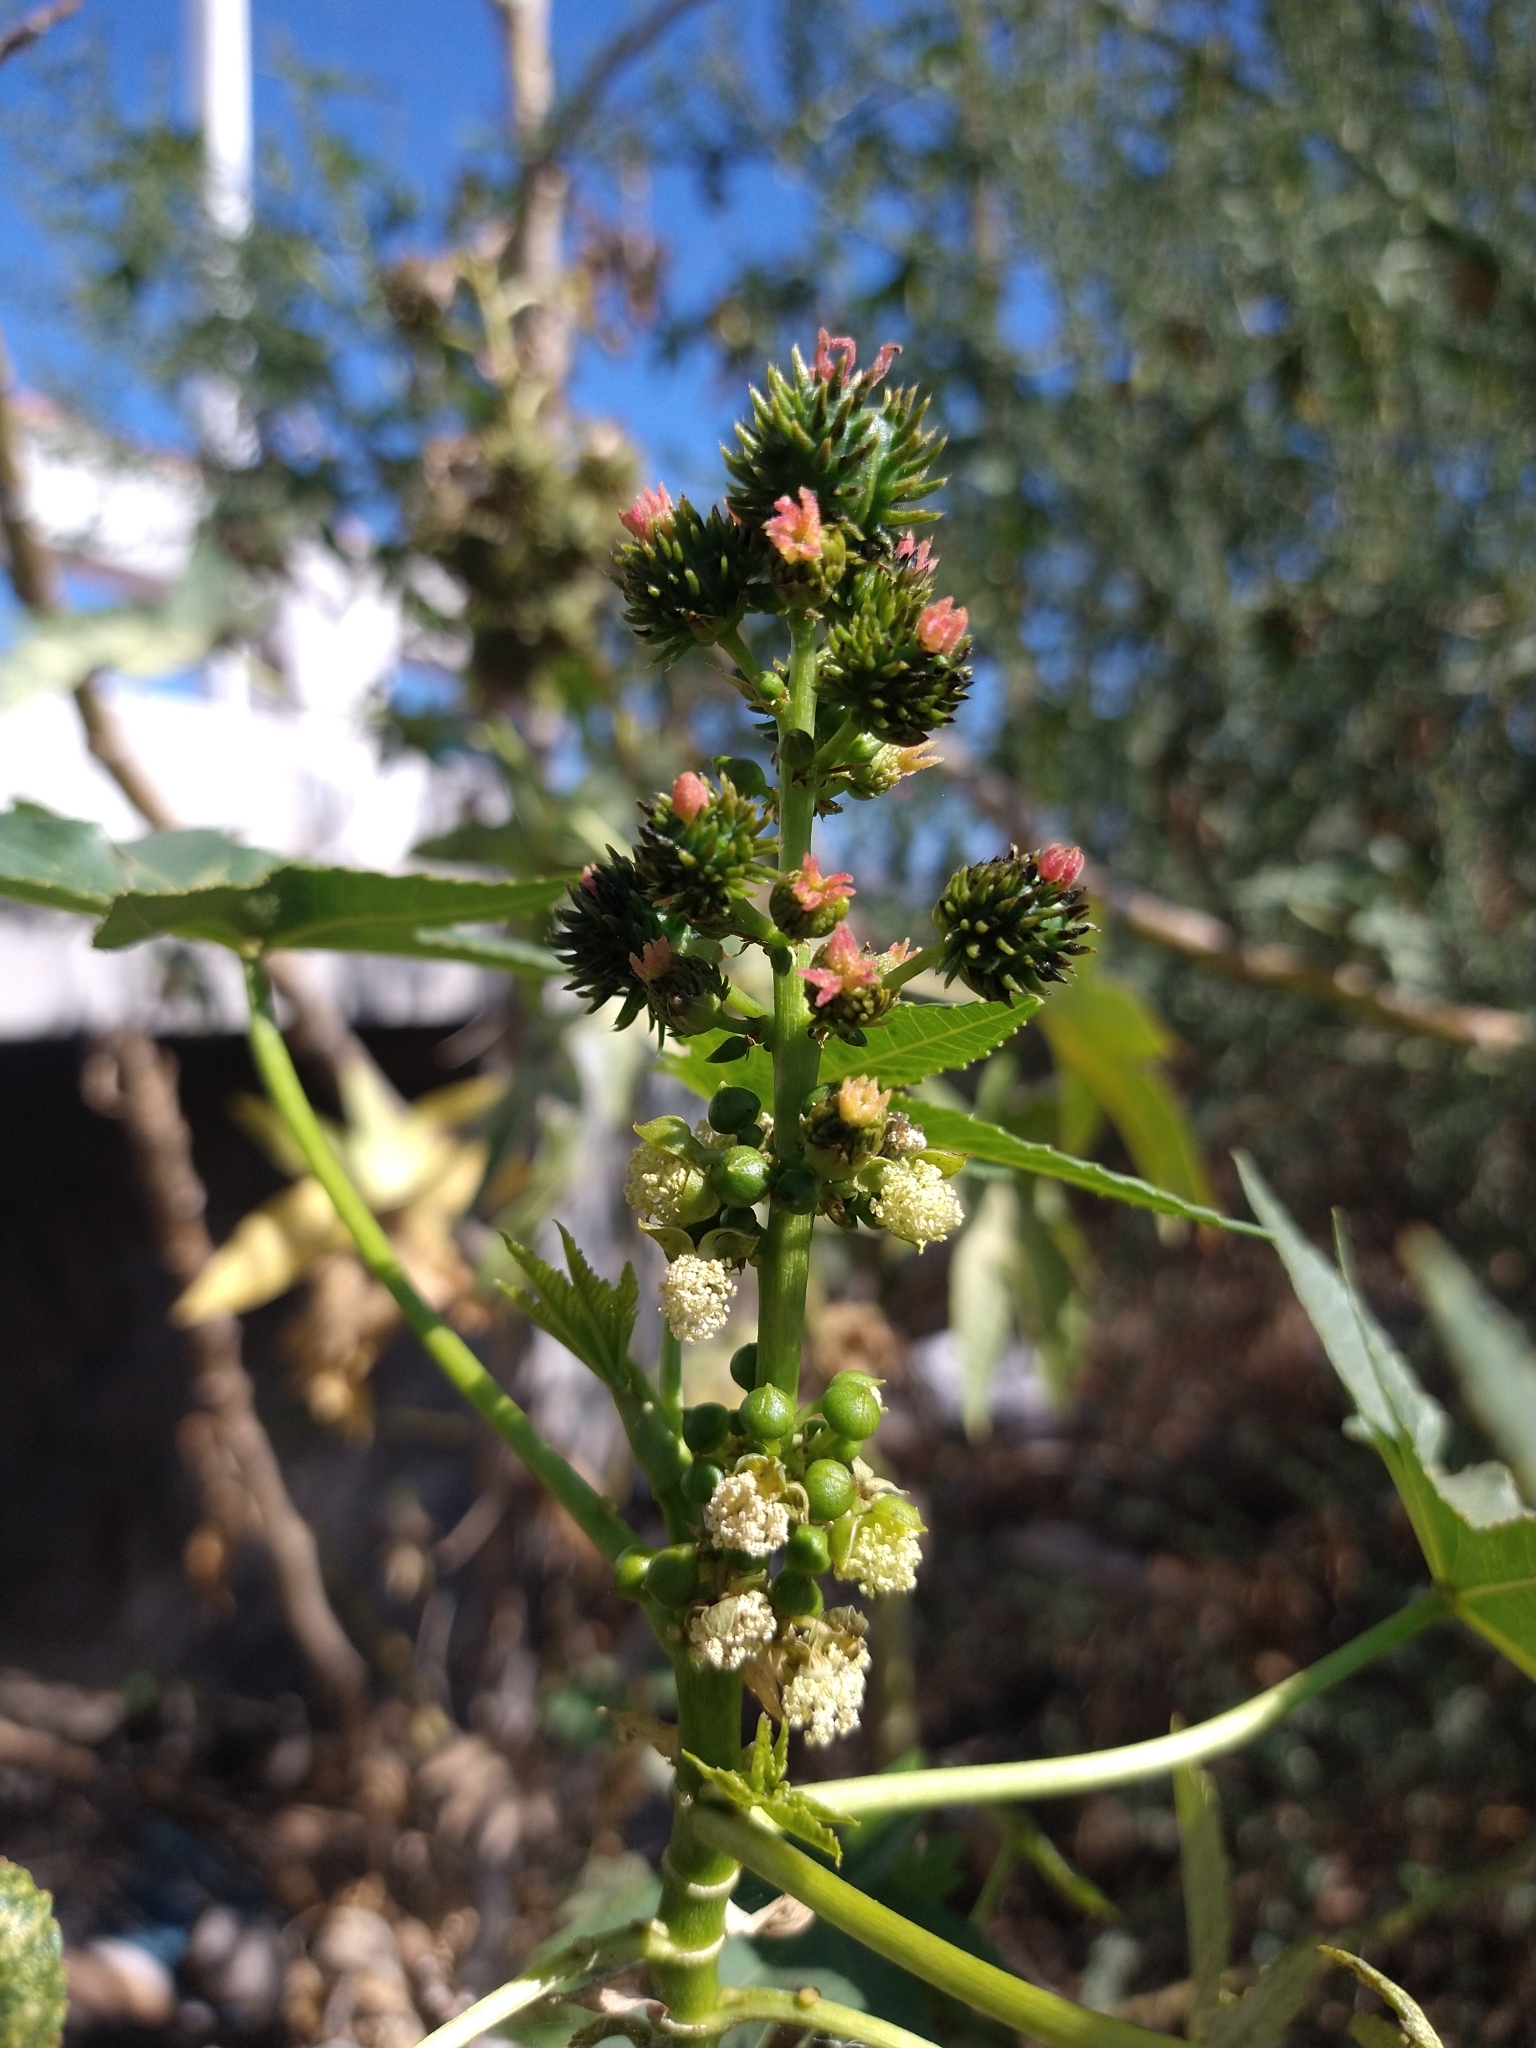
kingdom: Plantae
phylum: Tracheophyta
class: Magnoliopsida
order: Malpighiales
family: Euphorbiaceae
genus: Ricinus
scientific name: Ricinus communis
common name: Castor-oil-plant
